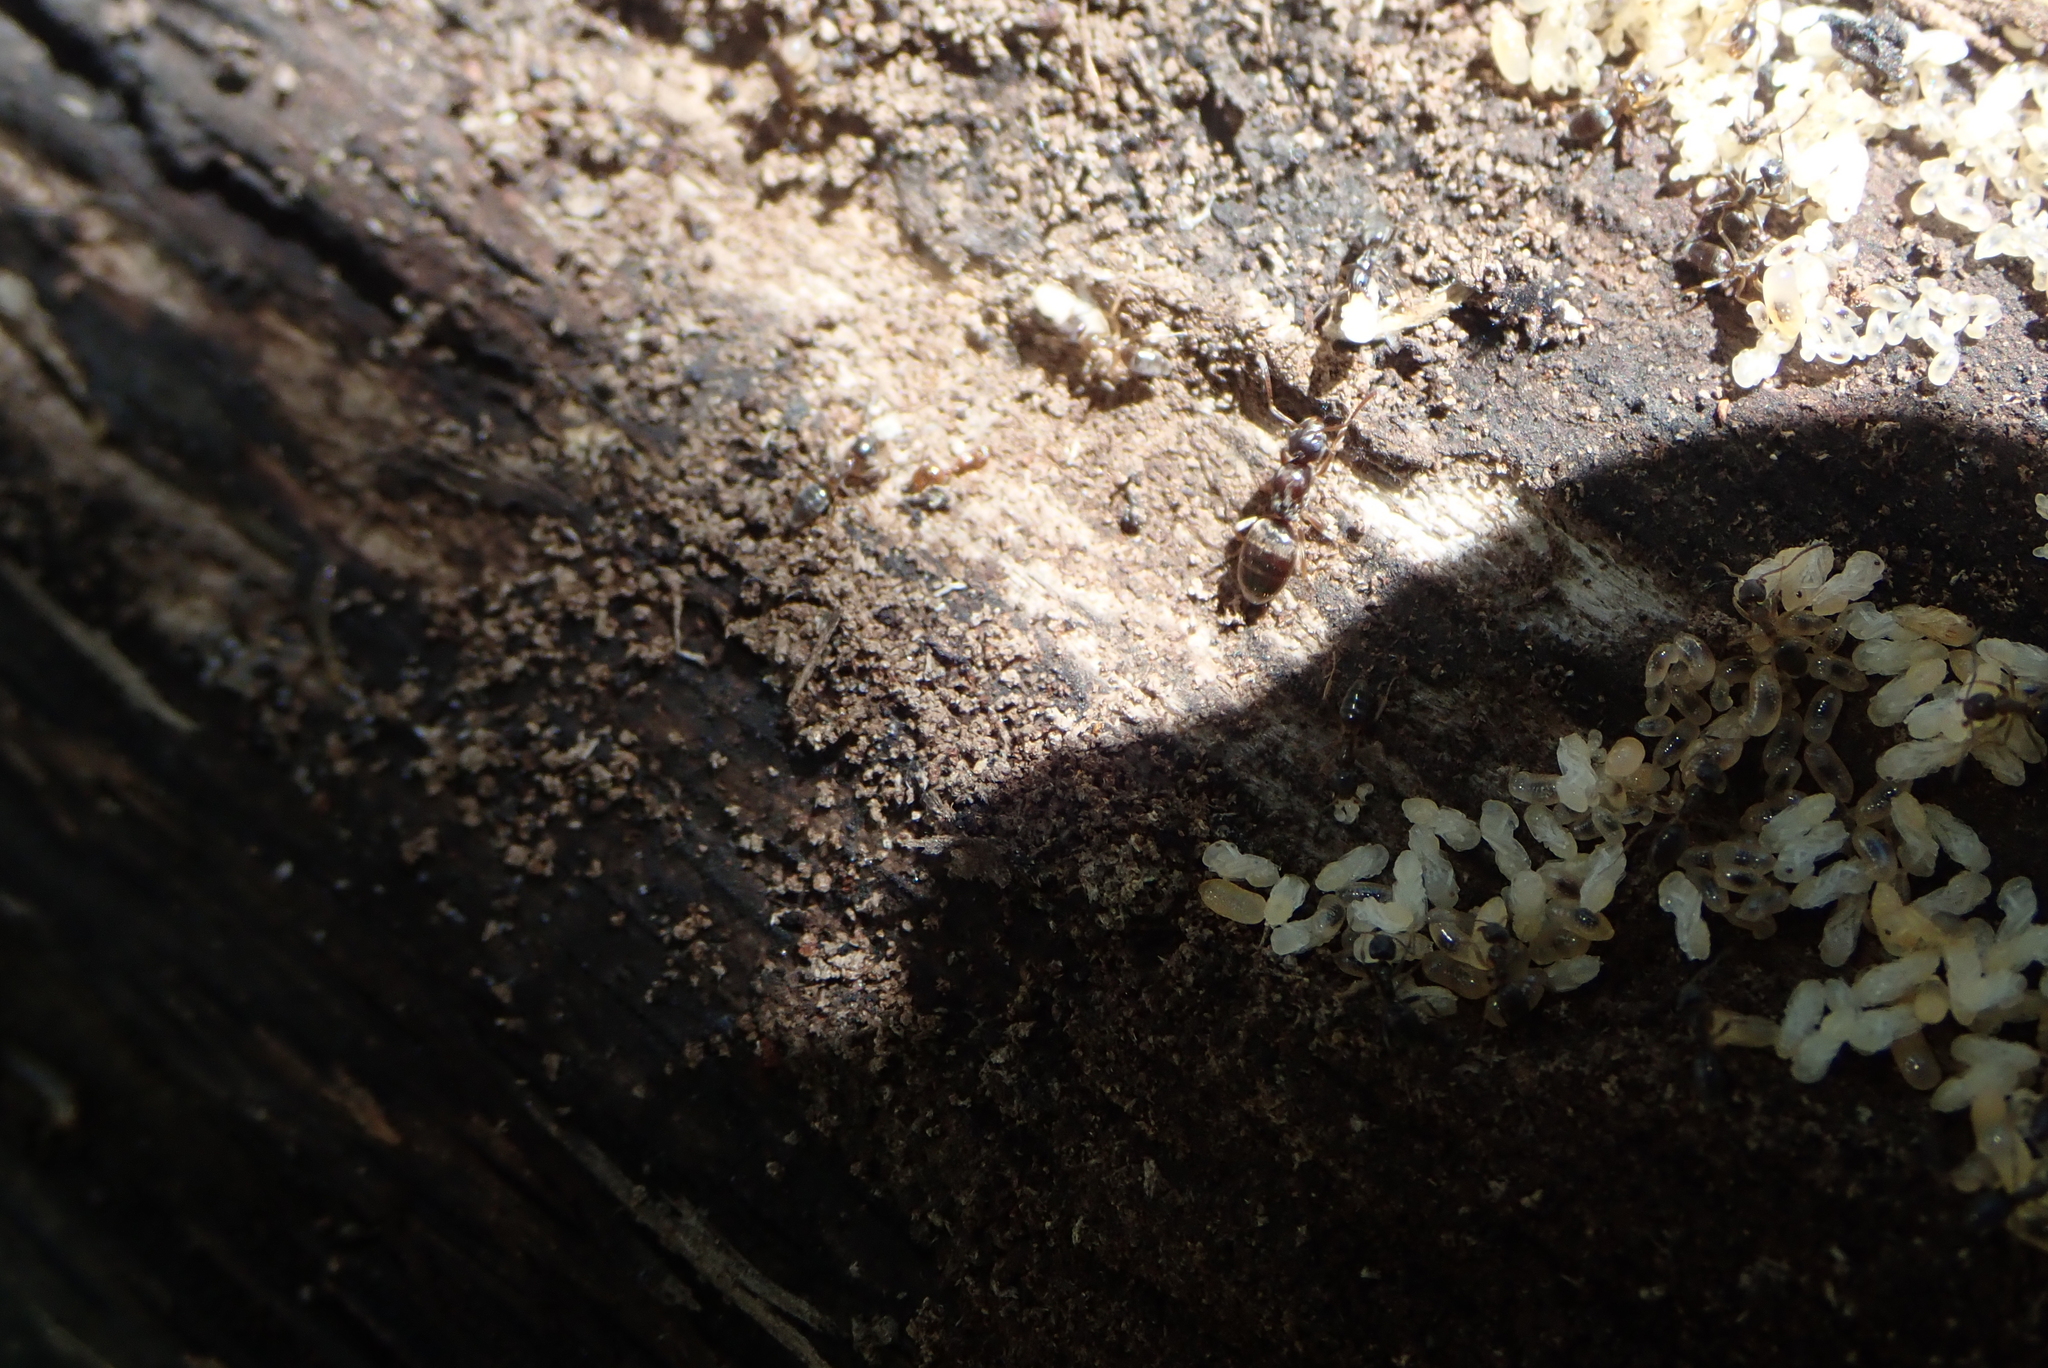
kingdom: Animalia
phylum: Arthropoda
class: Insecta
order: Hymenoptera
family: Formicidae
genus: Tapinoma
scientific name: Tapinoma sessile
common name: Odorous house ant
